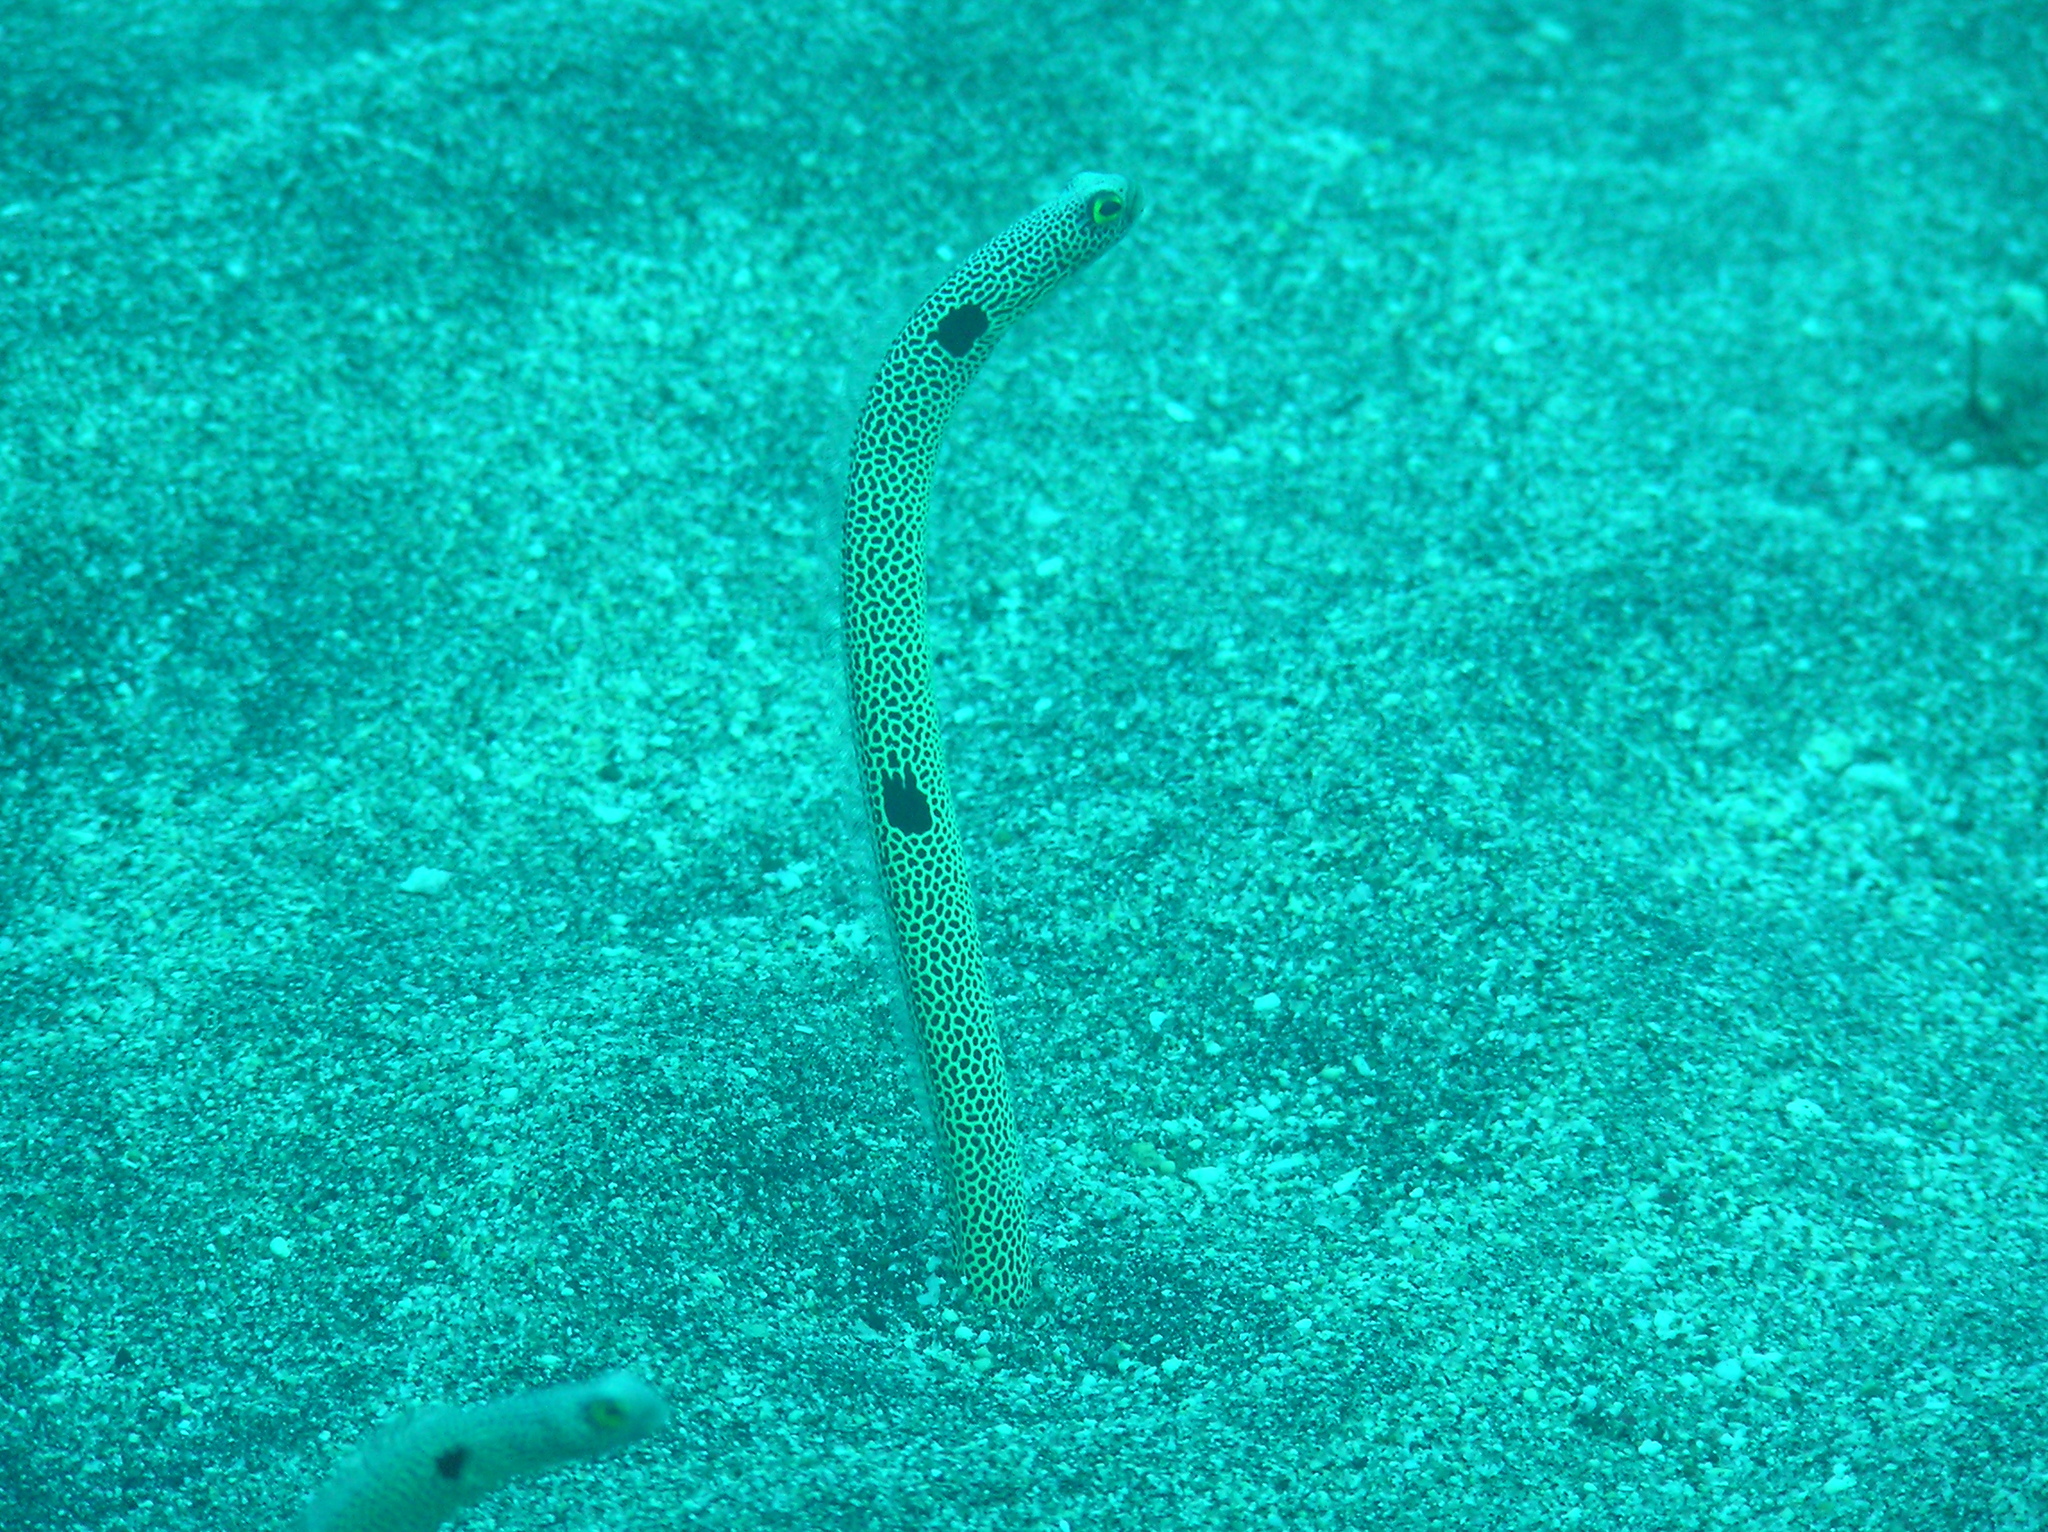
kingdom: Animalia
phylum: Chordata
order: Anguilliformes
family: Congridae
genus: Heteroconger
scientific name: Heteroconger hassi
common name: Spotted garden eel
